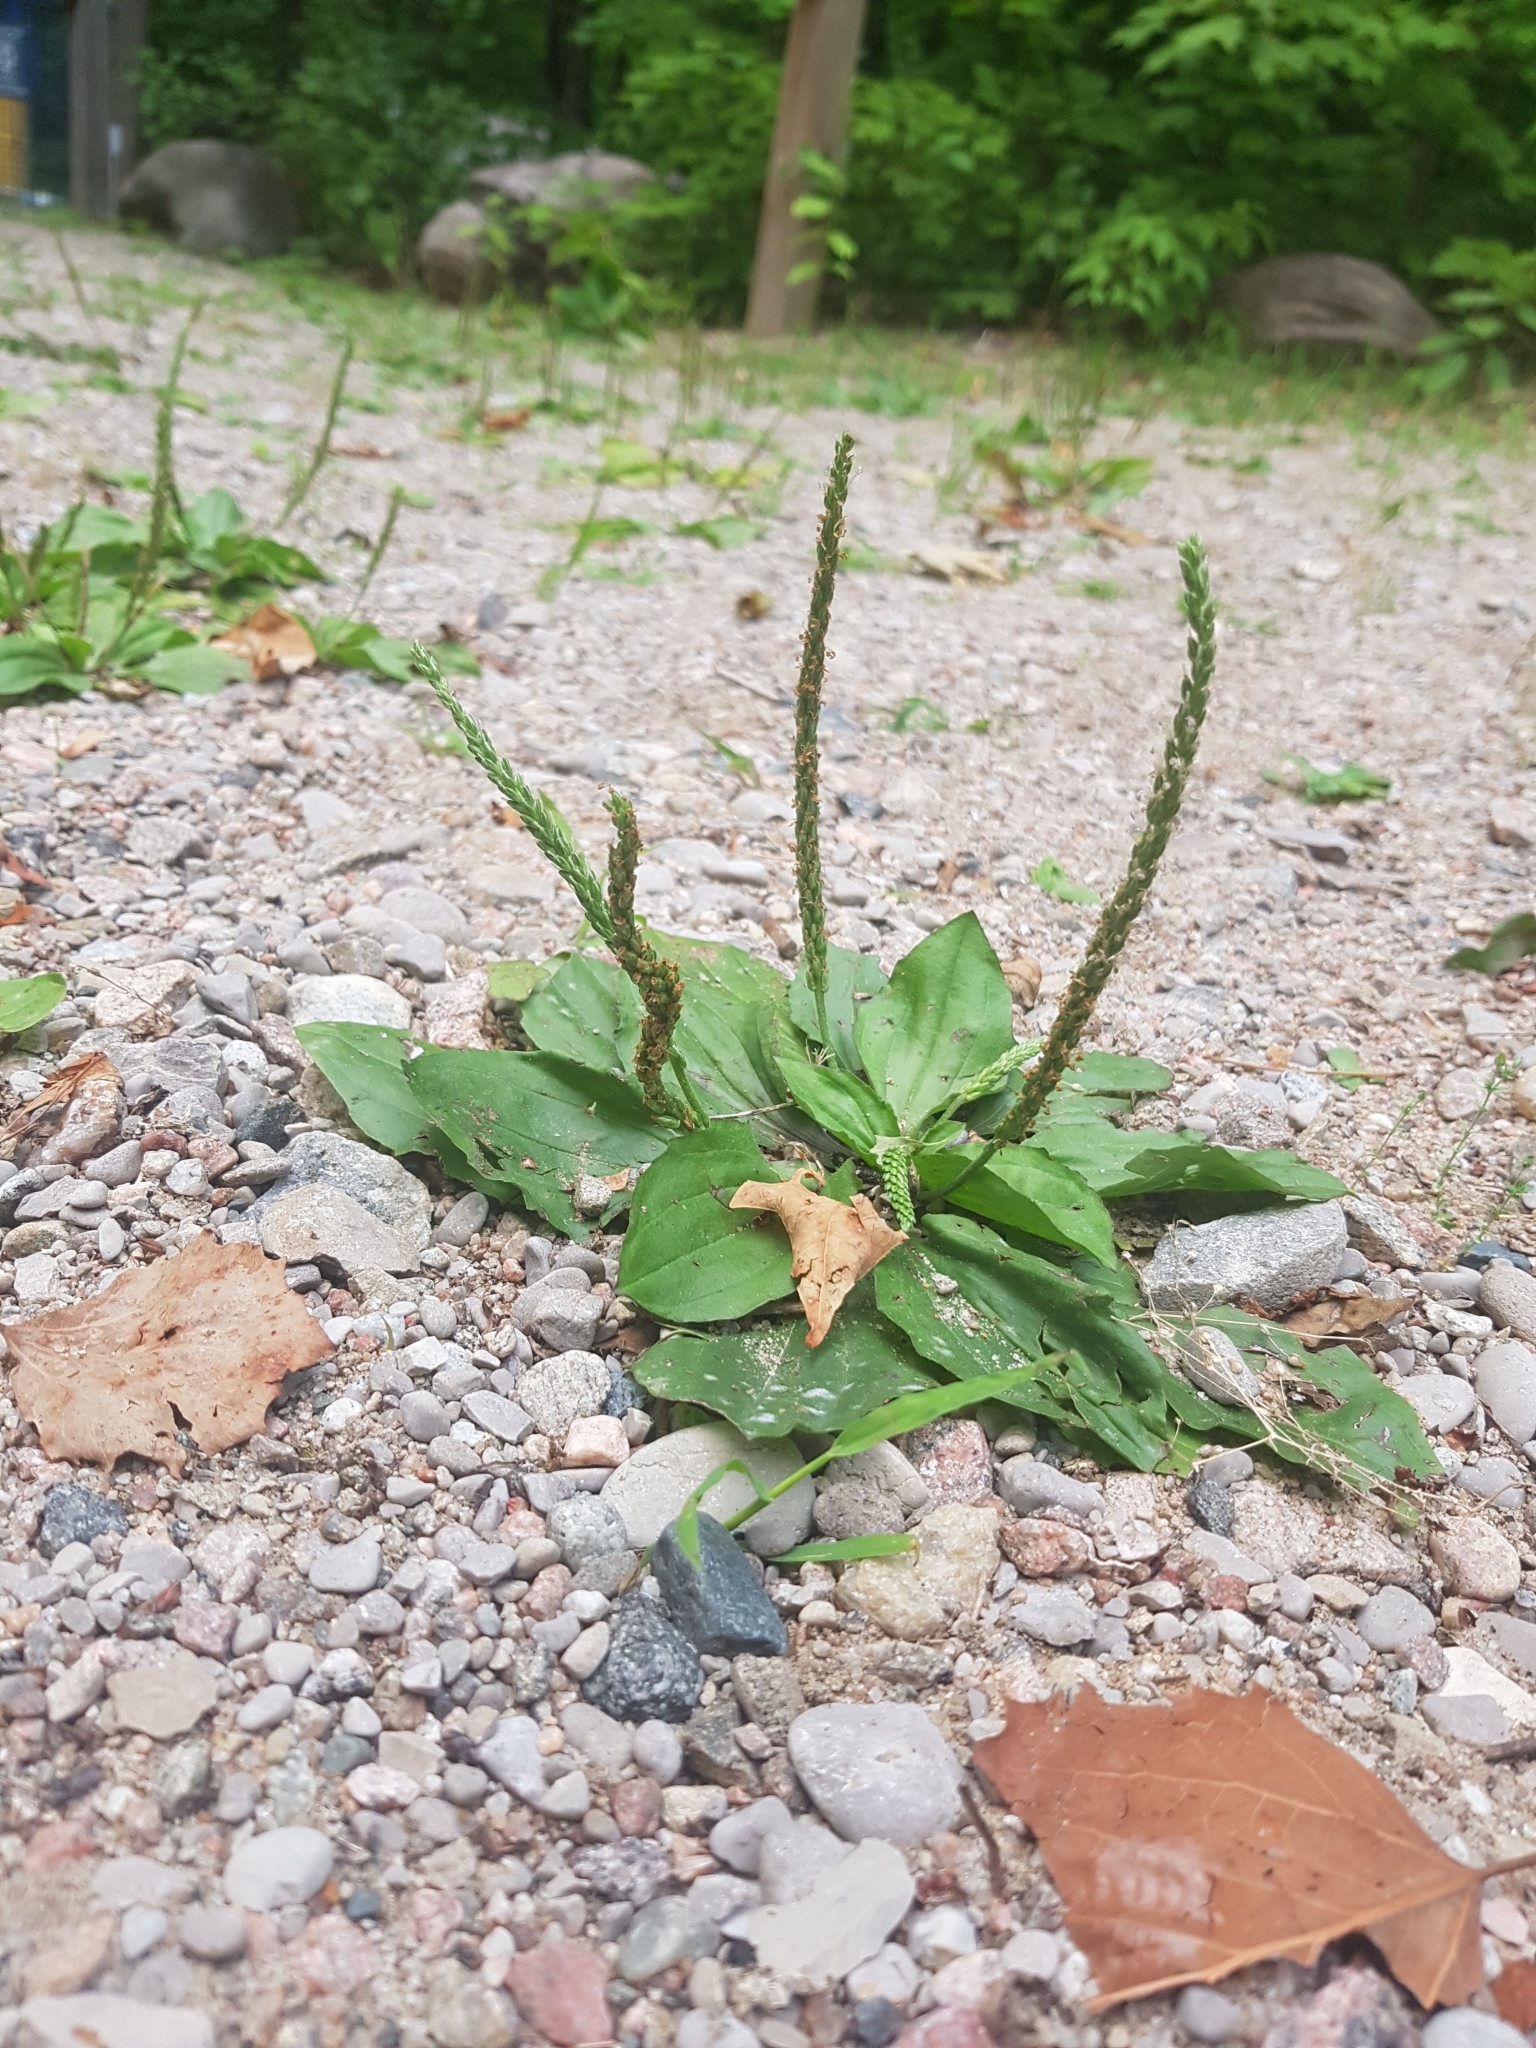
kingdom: Plantae
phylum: Tracheophyta
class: Magnoliopsida
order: Lamiales
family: Plantaginaceae
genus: Plantago
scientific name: Plantago major
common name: Common plantain
